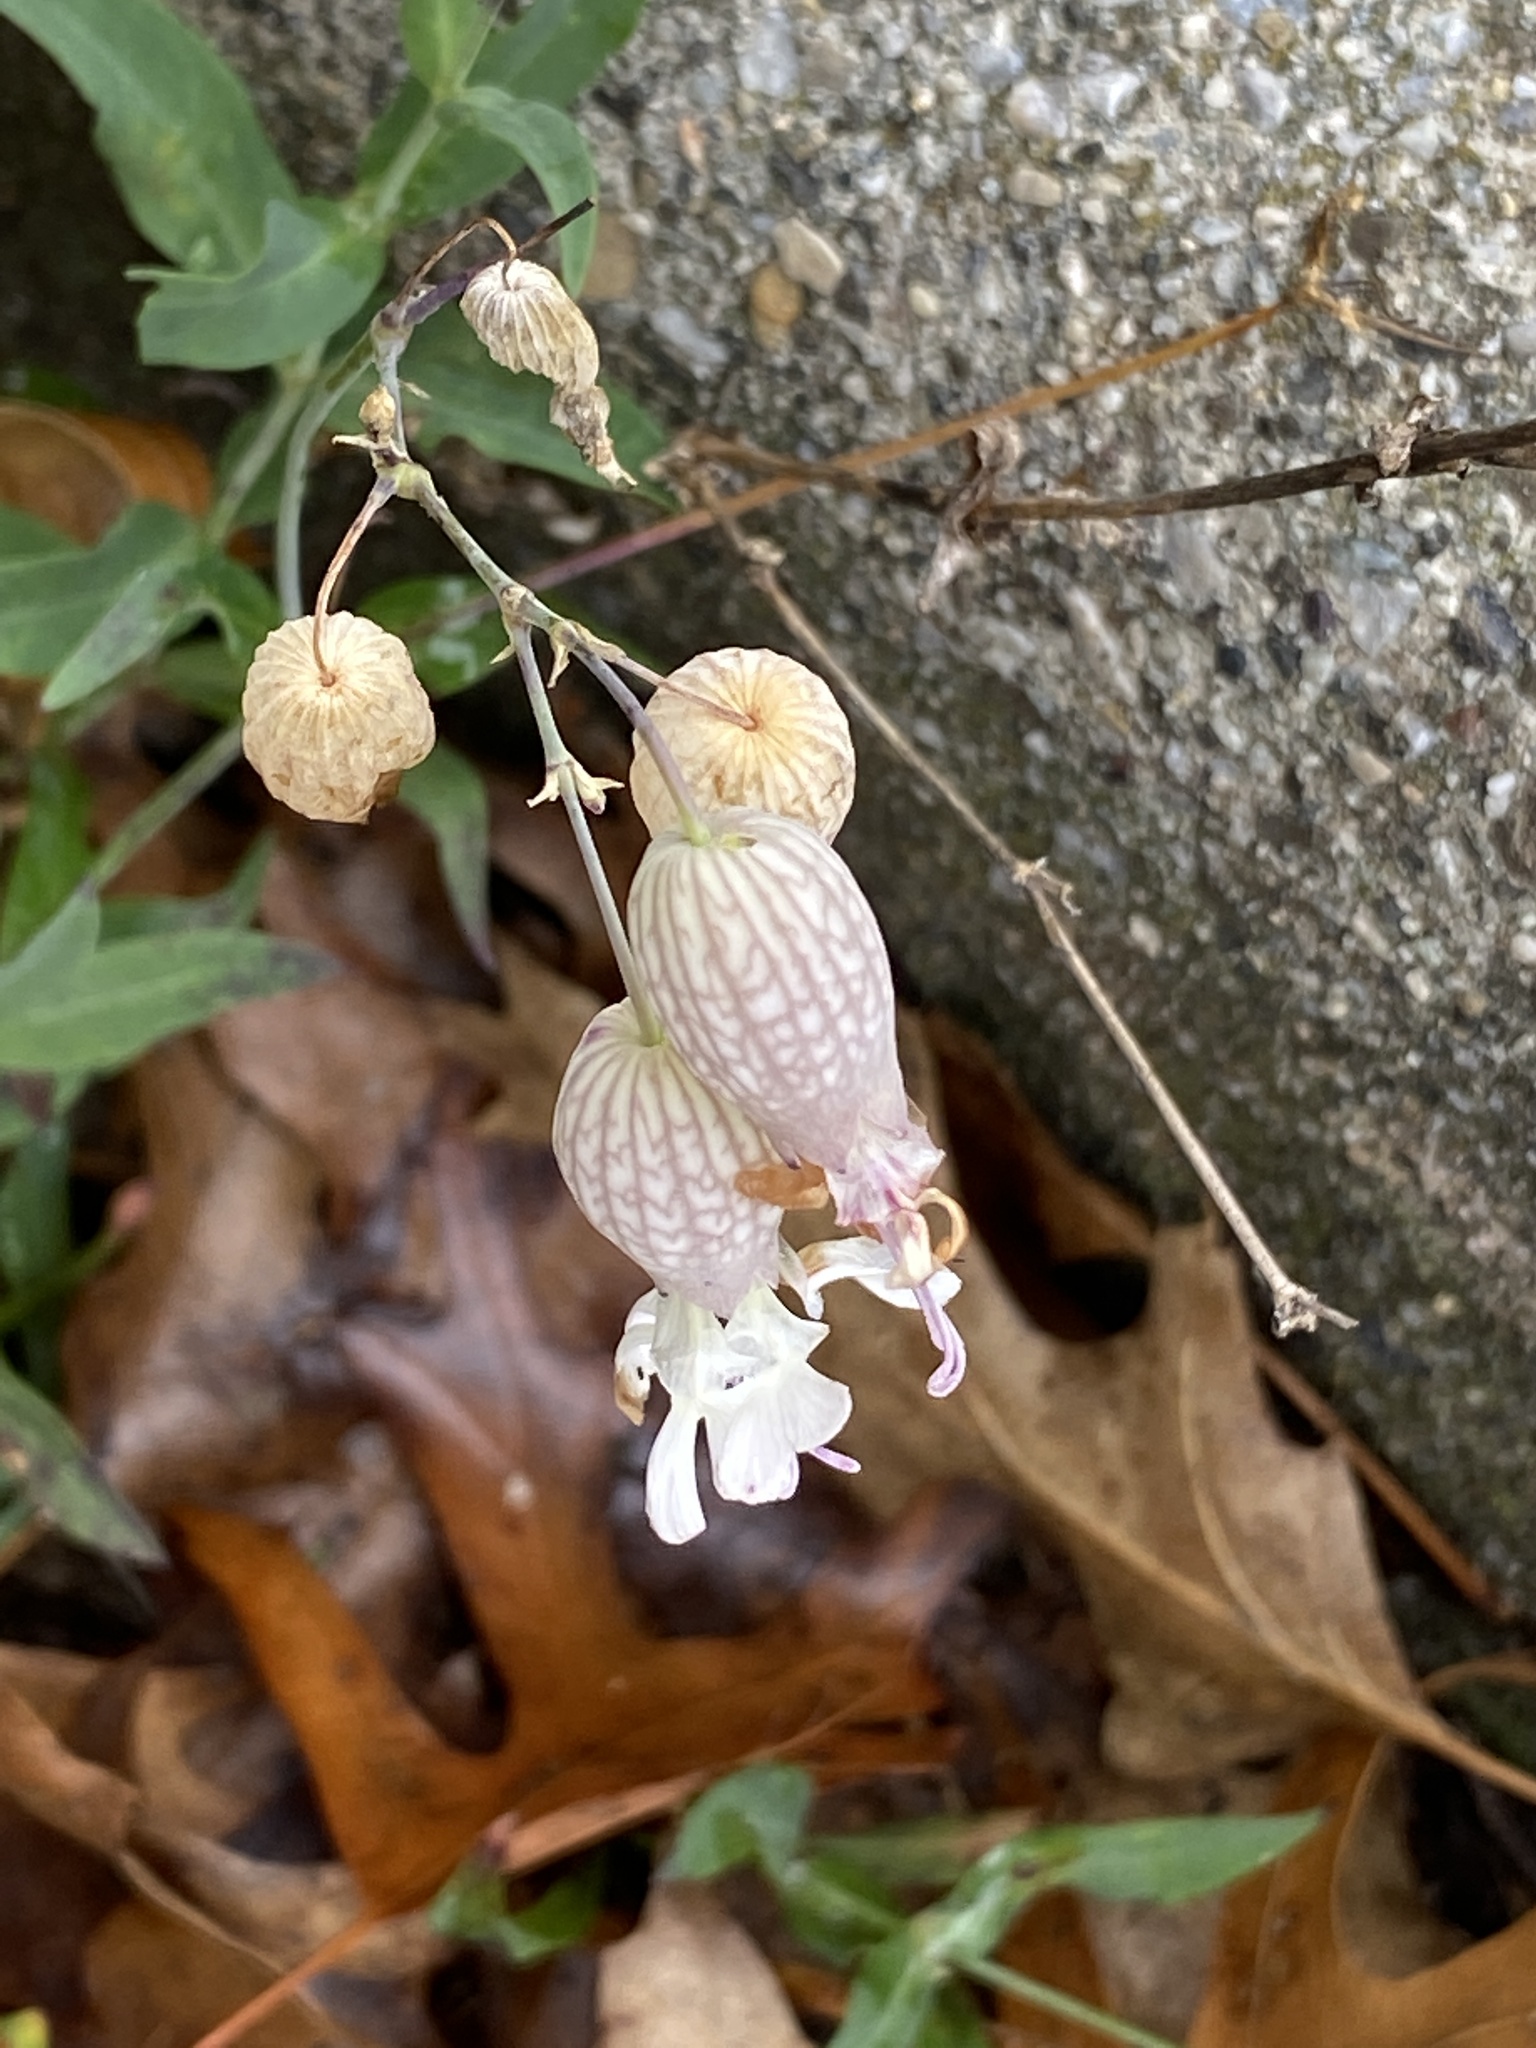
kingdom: Plantae
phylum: Tracheophyta
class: Magnoliopsida
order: Caryophyllales
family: Caryophyllaceae
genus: Silene
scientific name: Silene vulgaris
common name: Bladder campion
